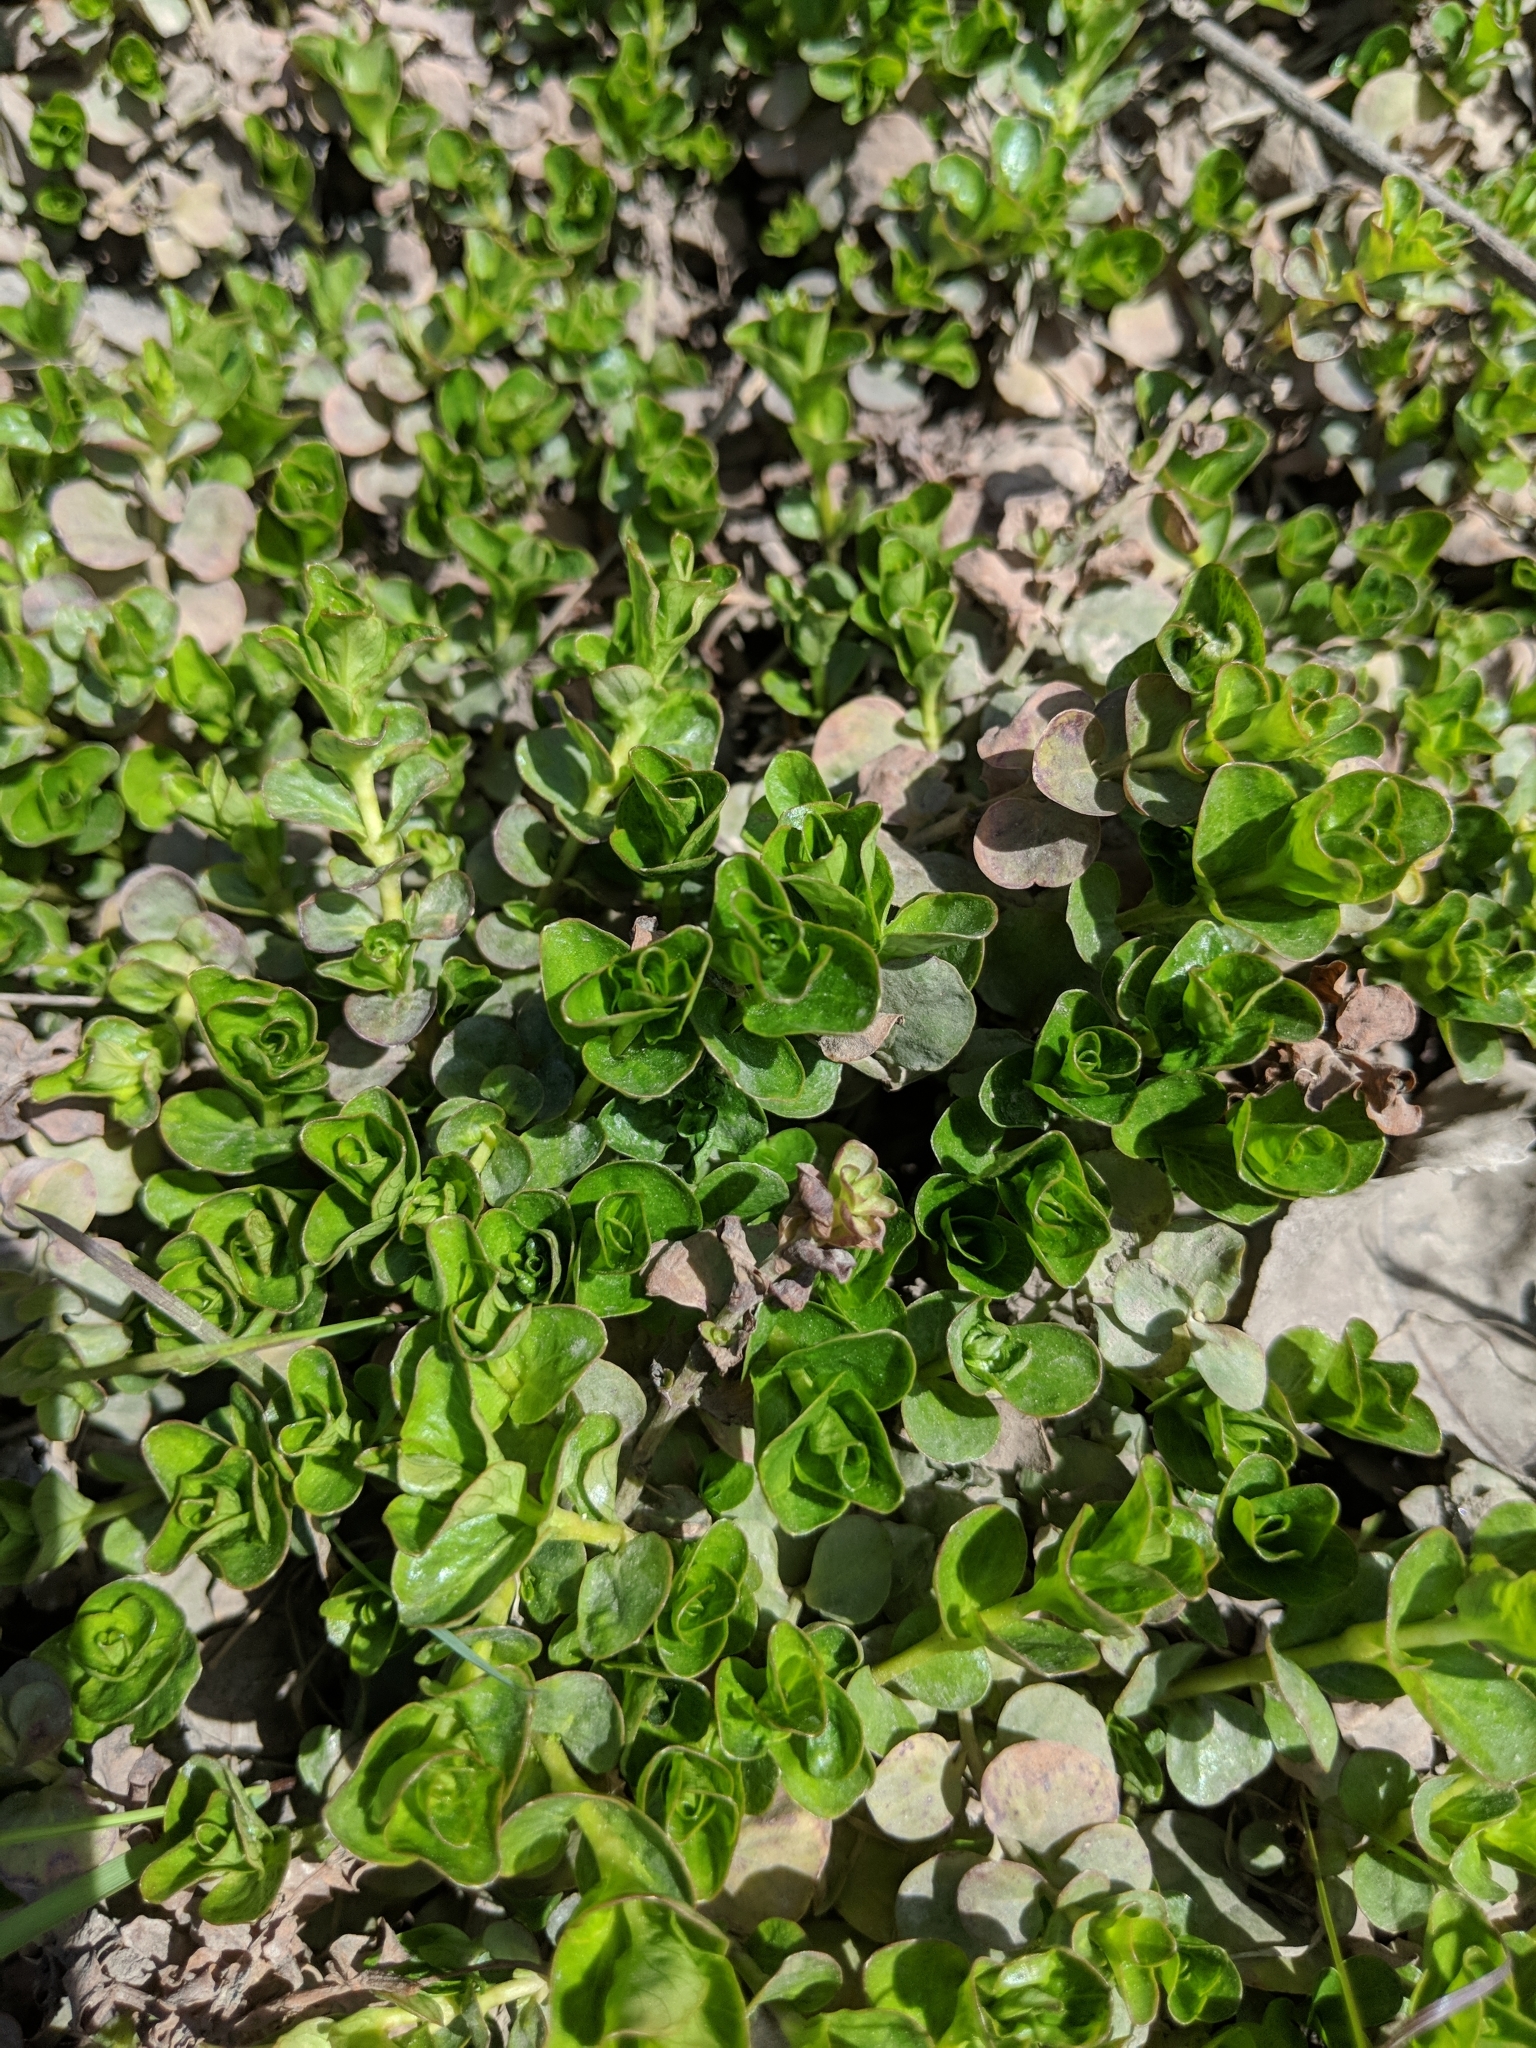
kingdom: Plantae
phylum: Tracheophyta
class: Magnoliopsida
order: Ericales
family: Primulaceae
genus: Lysimachia
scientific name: Lysimachia nummularia
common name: Moneywort
